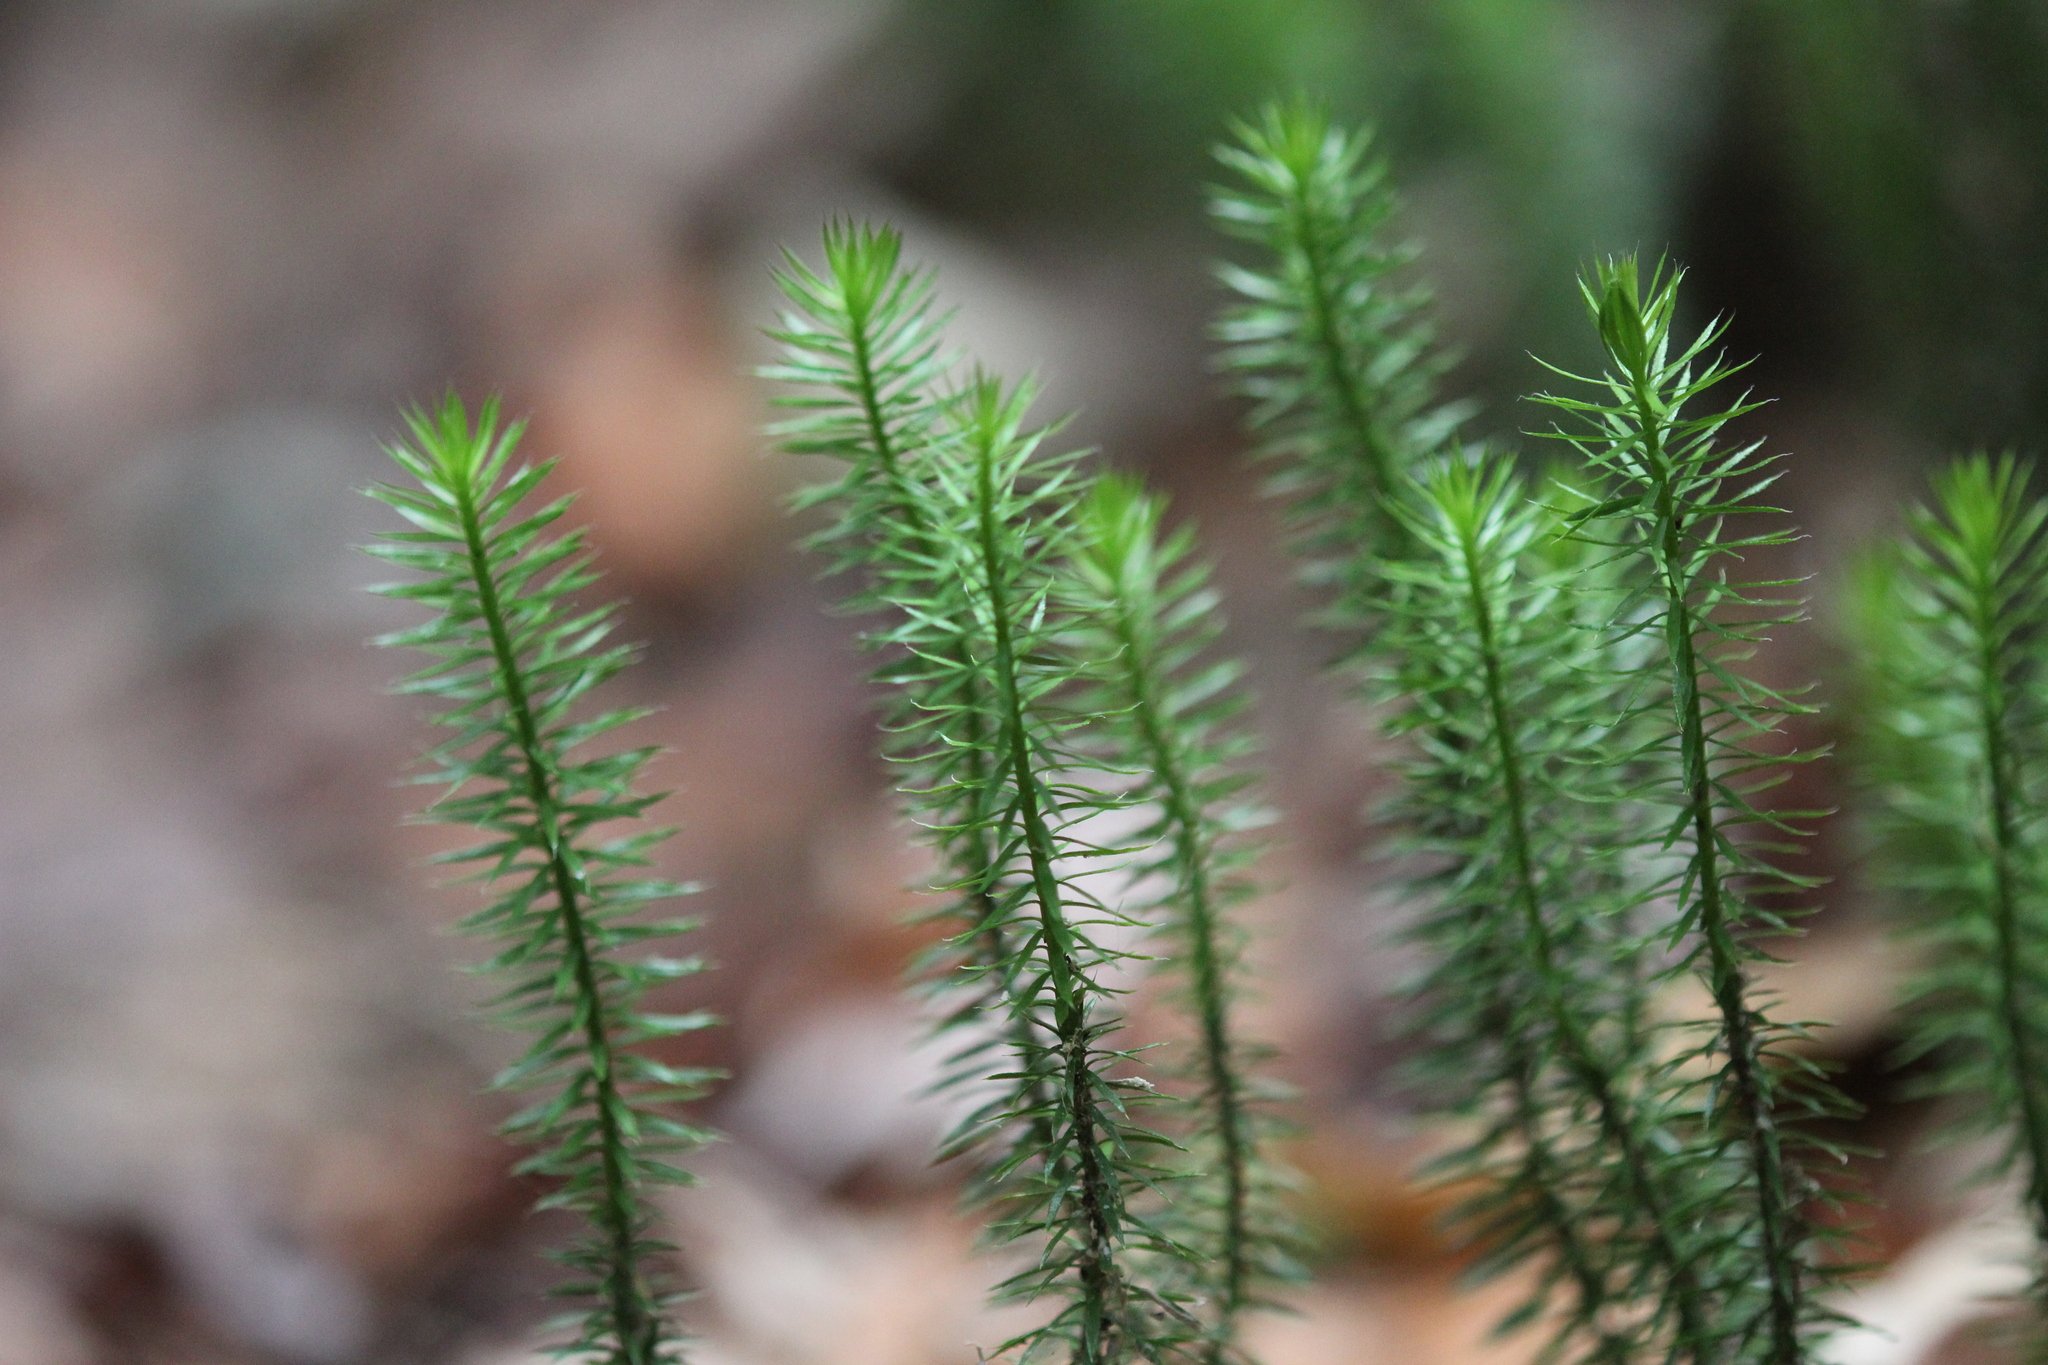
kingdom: Plantae
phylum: Tracheophyta
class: Lycopodiopsida
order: Lycopodiales
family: Lycopodiaceae
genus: Spinulum
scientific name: Spinulum annotinum
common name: Interrupted club-moss
